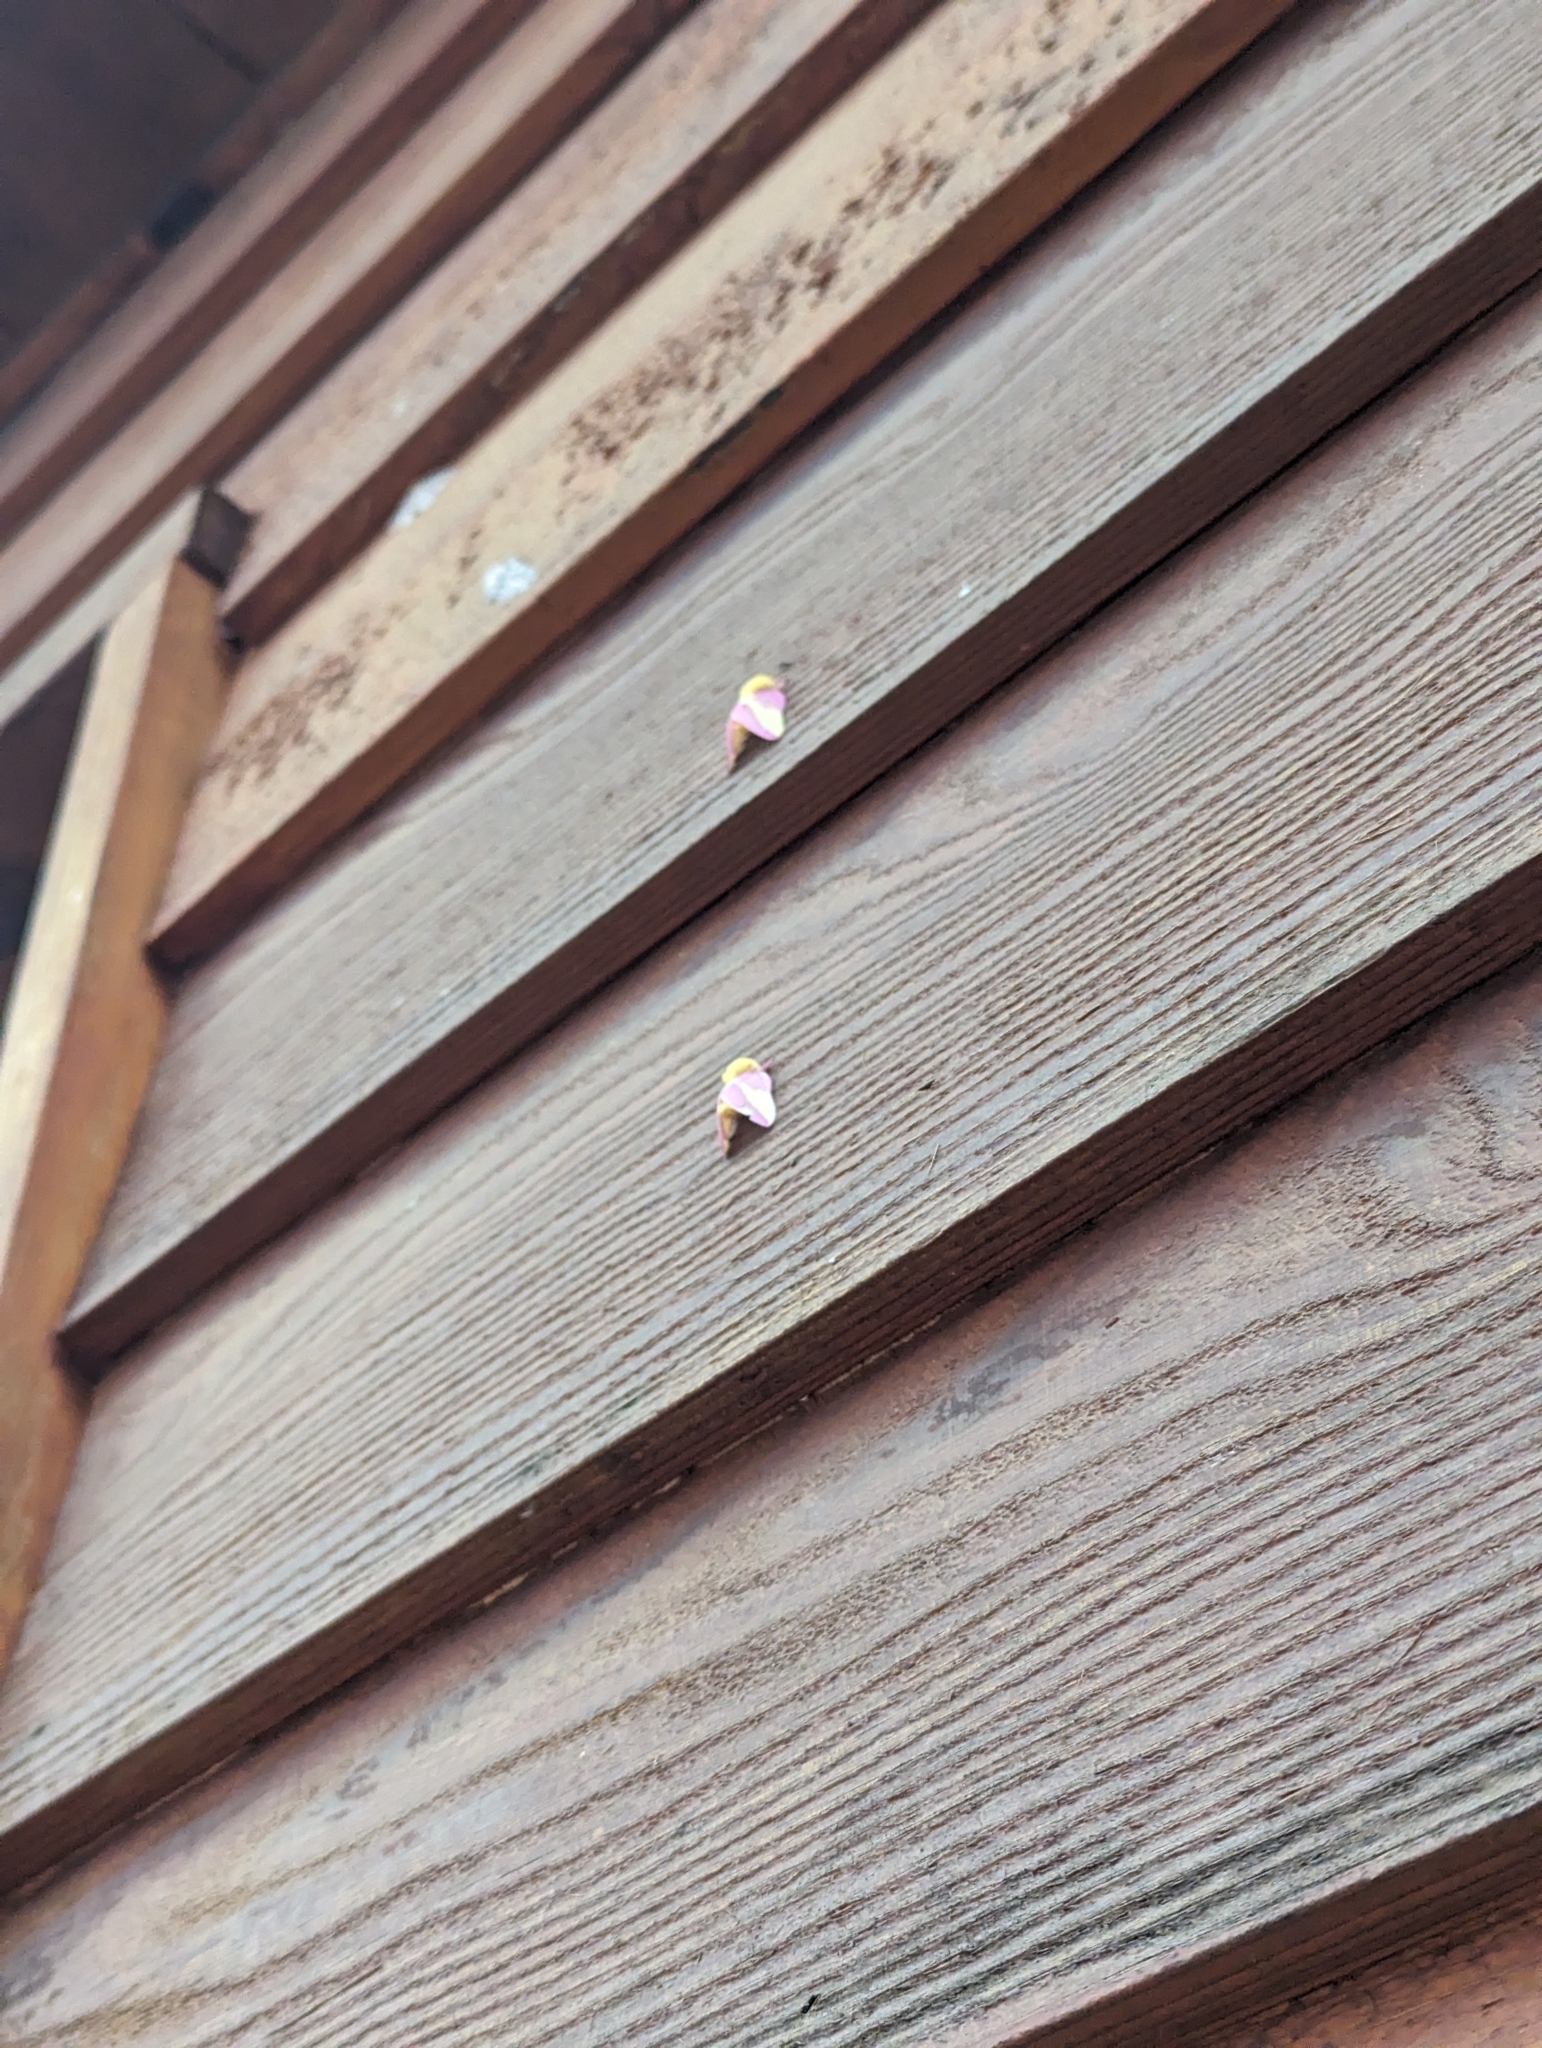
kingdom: Animalia
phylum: Arthropoda
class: Insecta
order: Lepidoptera
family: Saturniidae
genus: Dryocampa
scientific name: Dryocampa rubicunda
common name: Rosy maple moth
